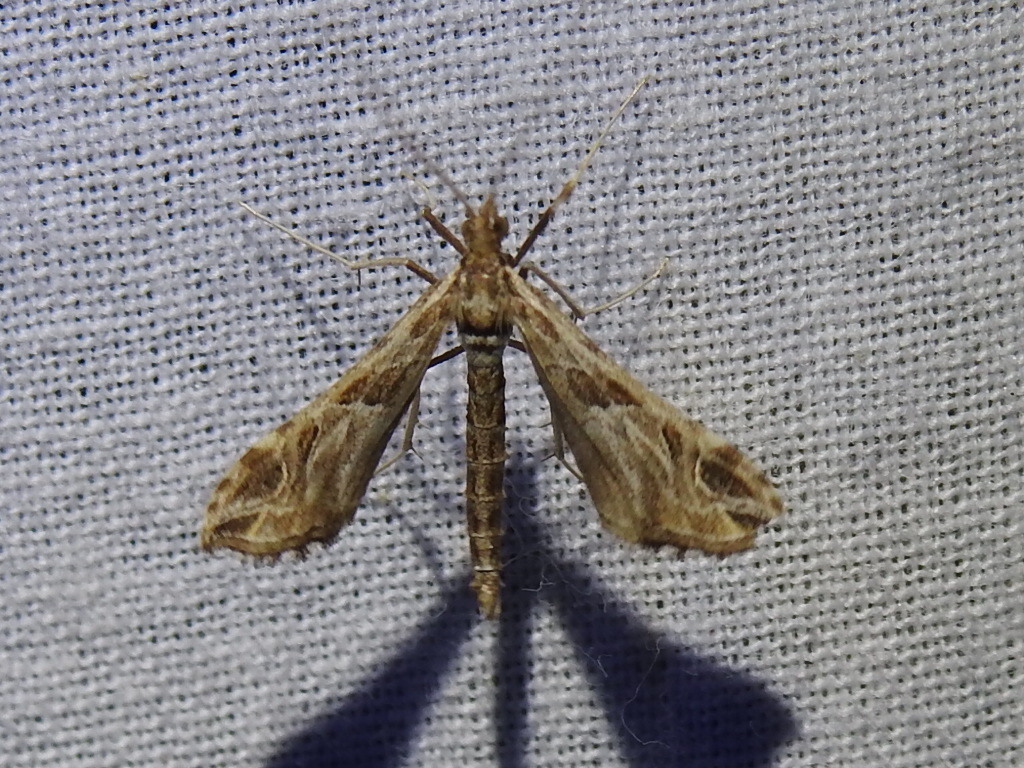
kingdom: Animalia
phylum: Arthropoda
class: Insecta
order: Lepidoptera
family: Crambidae
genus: Lineodes
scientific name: Lineodes interrupta
